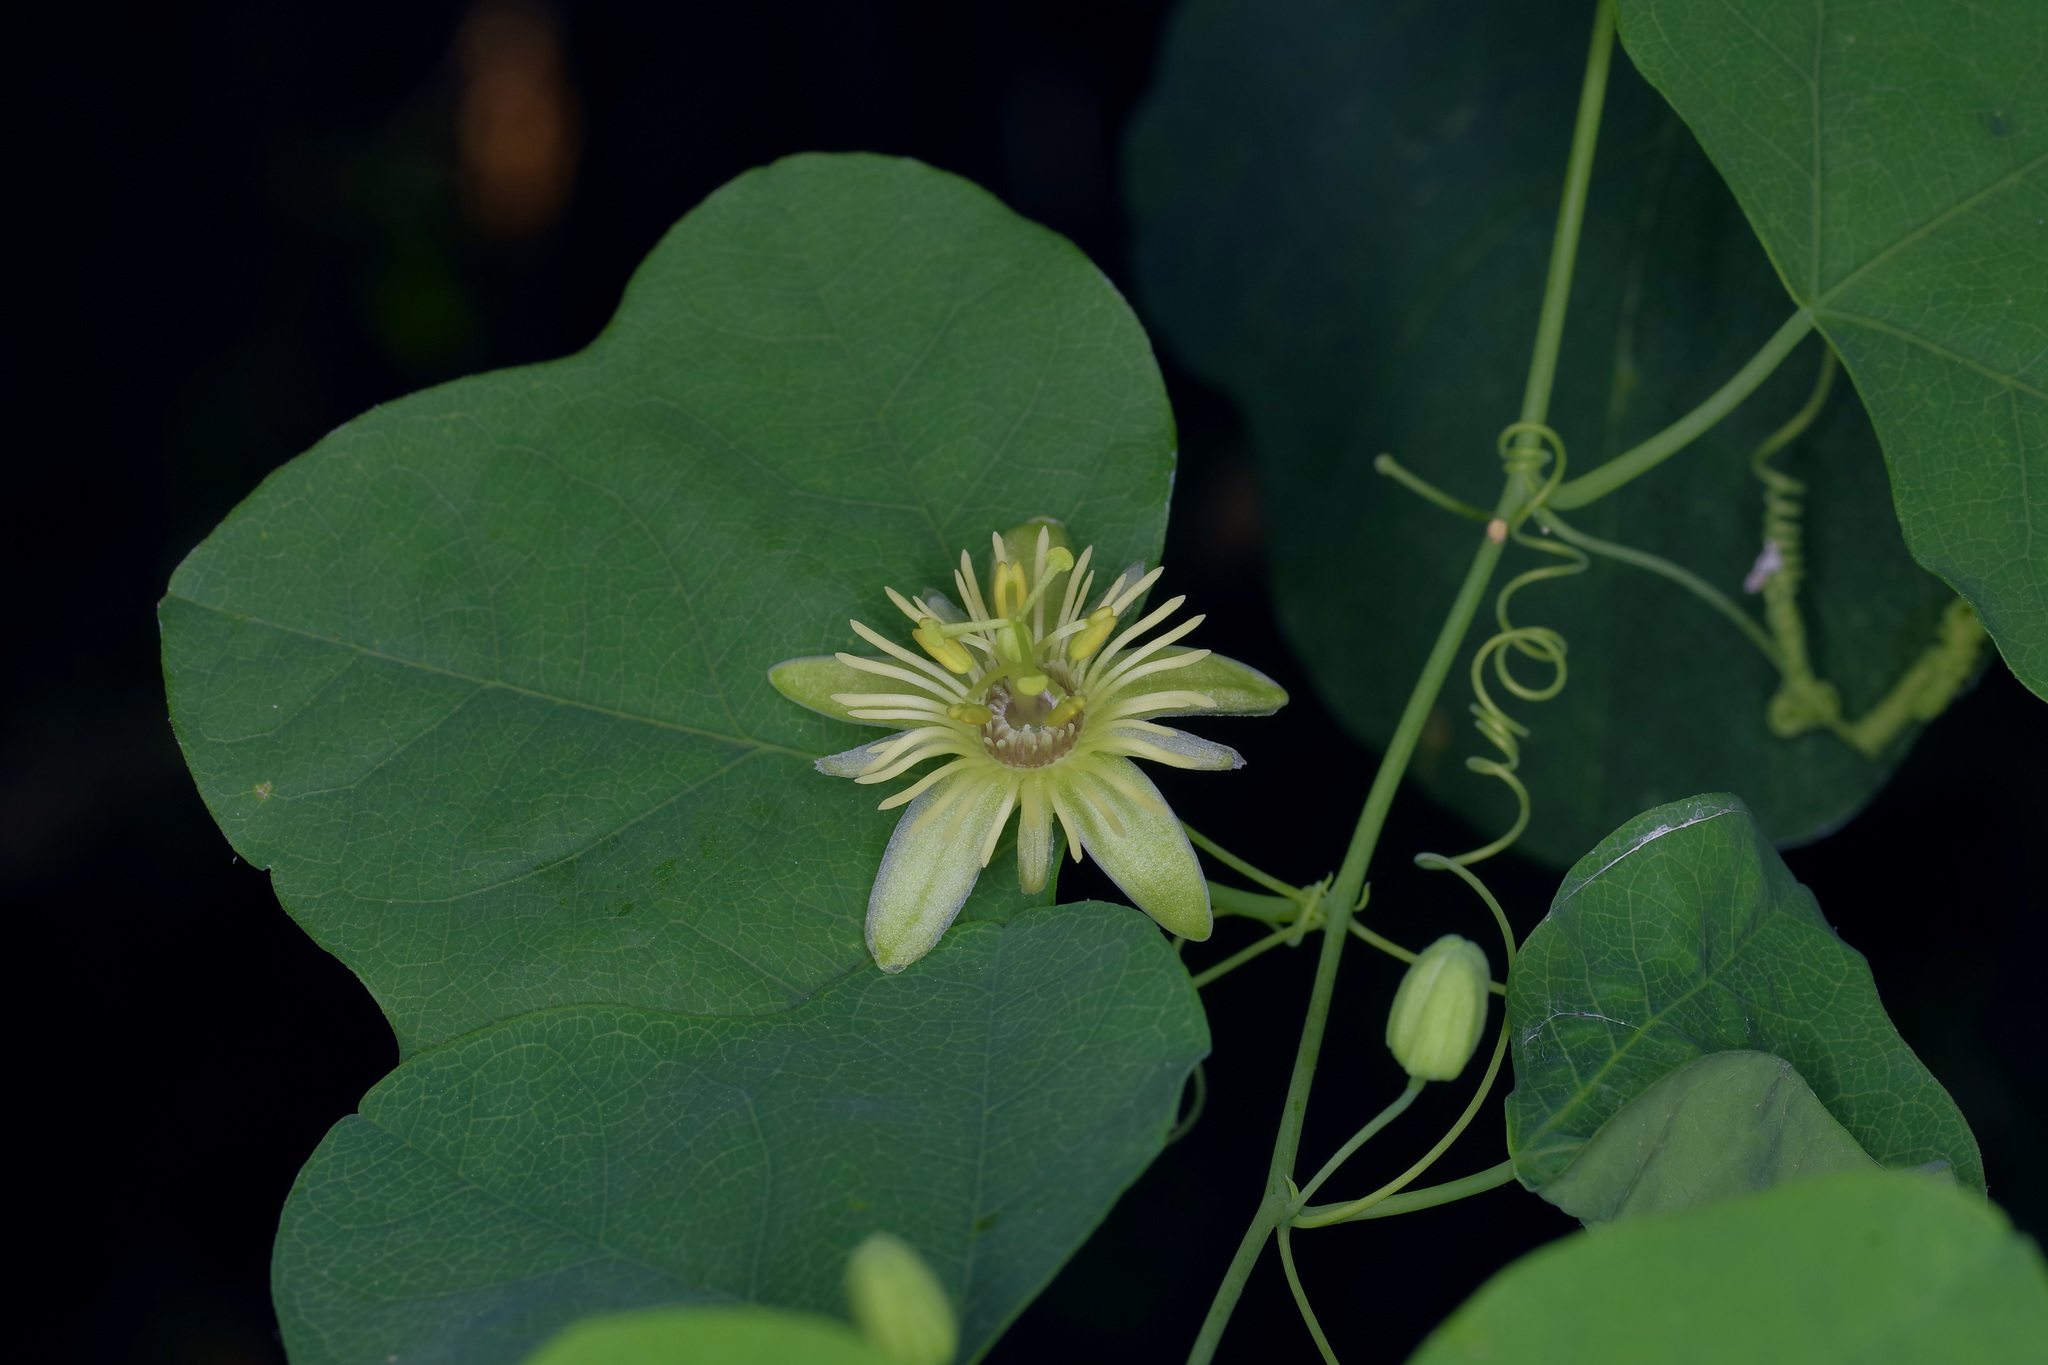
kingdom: Plantae
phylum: Tracheophyta
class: Magnoliopsida
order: Malpighiales
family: Passifloraceae
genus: Passiflora
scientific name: Passiflora lutea
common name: Yellow passionflower
